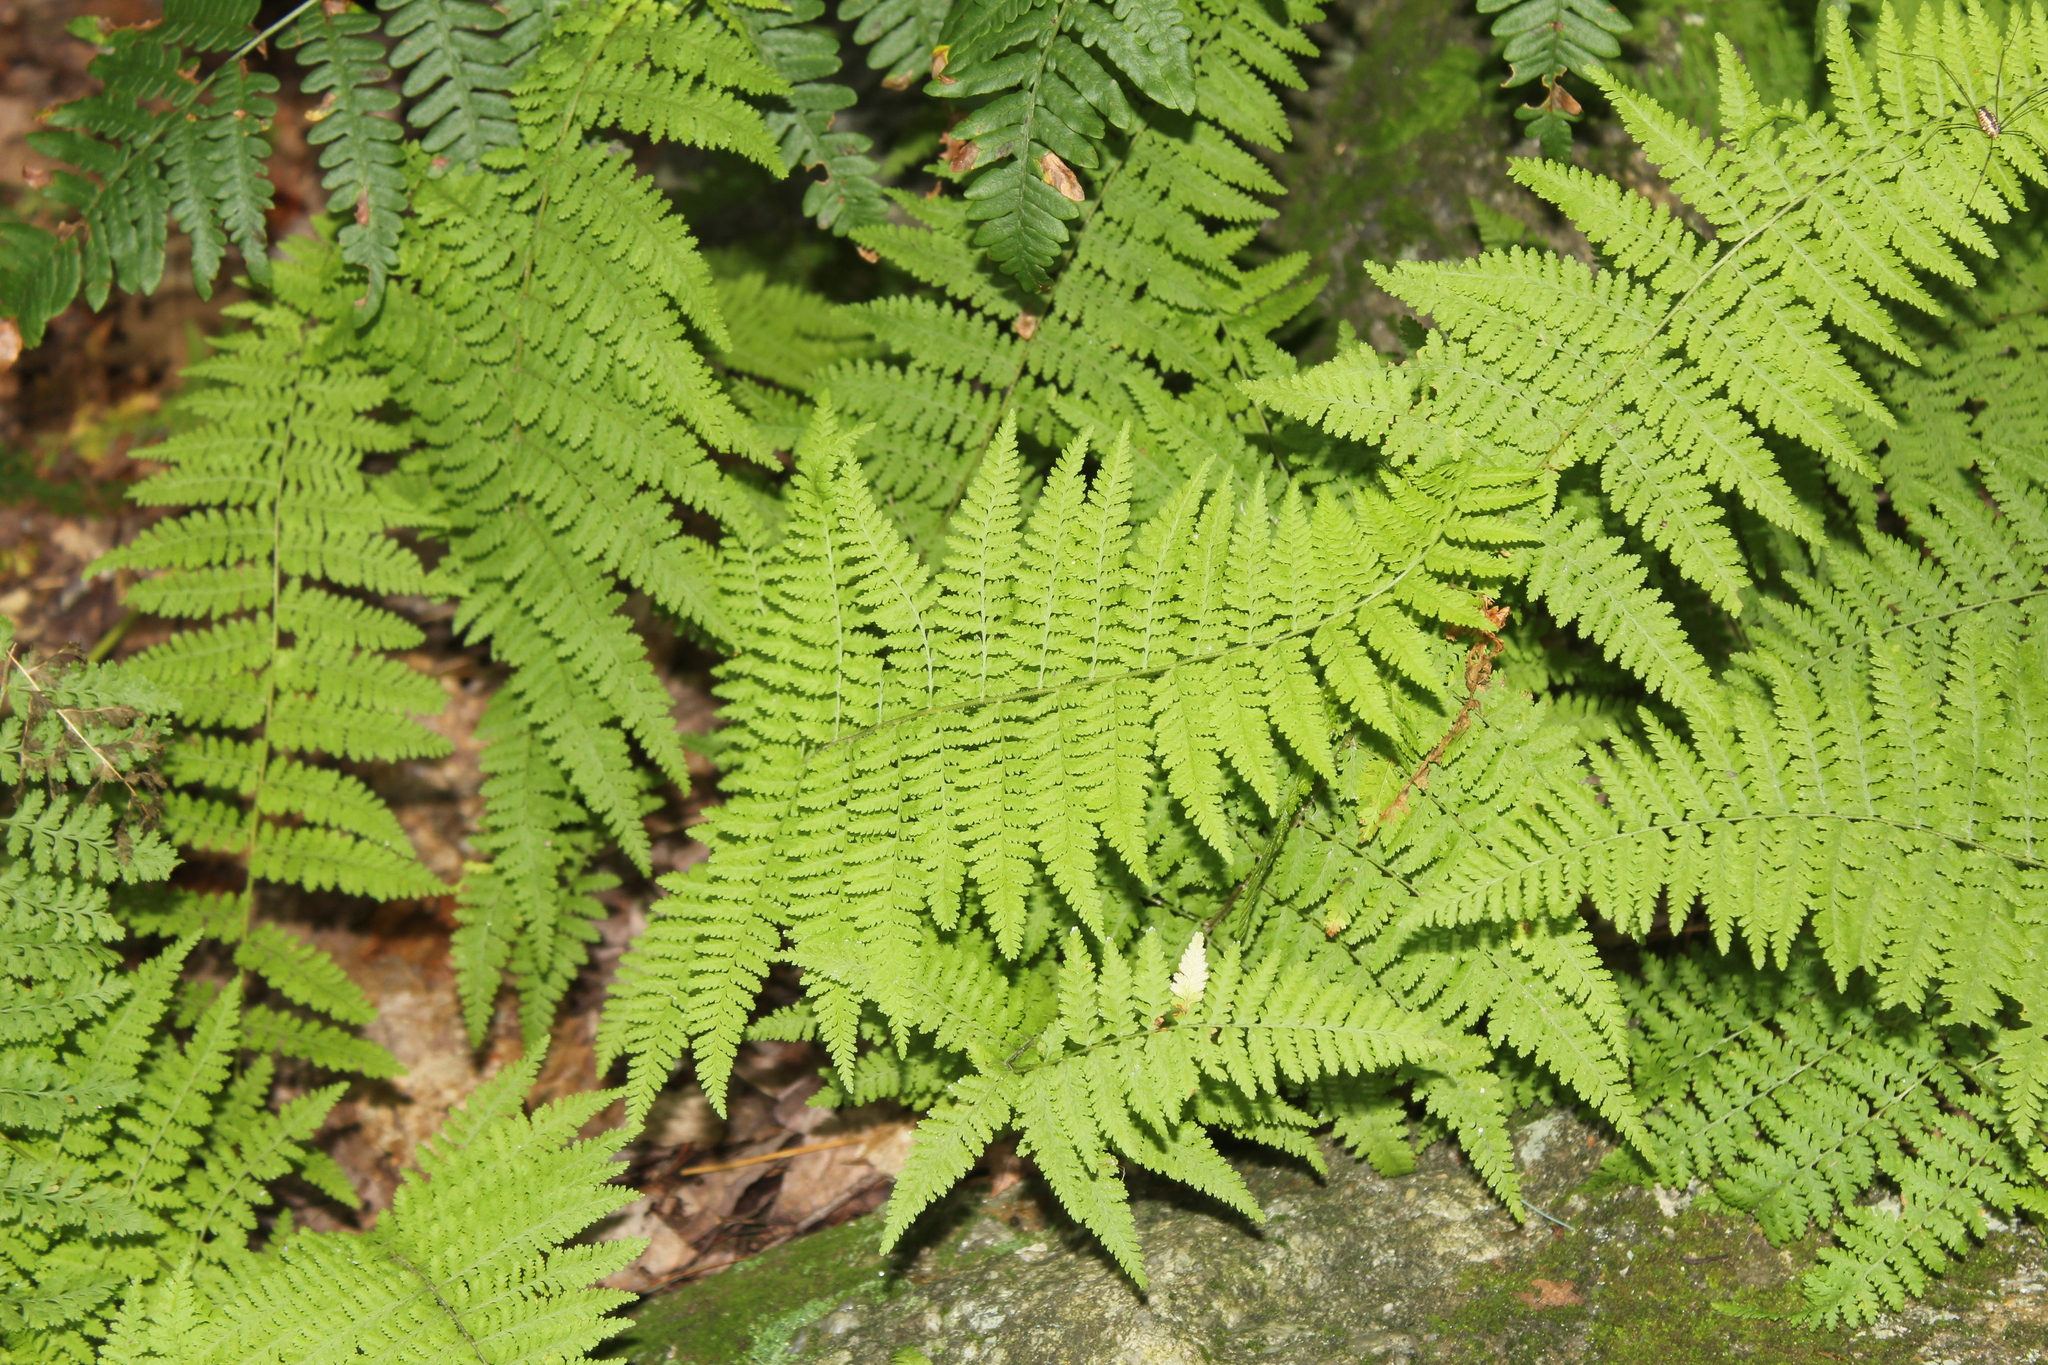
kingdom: Plantae
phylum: Tracheophyta
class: Polypodiopsida
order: Polypodiales
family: Dennstaedtiaceae
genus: Sitobolium
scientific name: Sitobolium punctilobum
